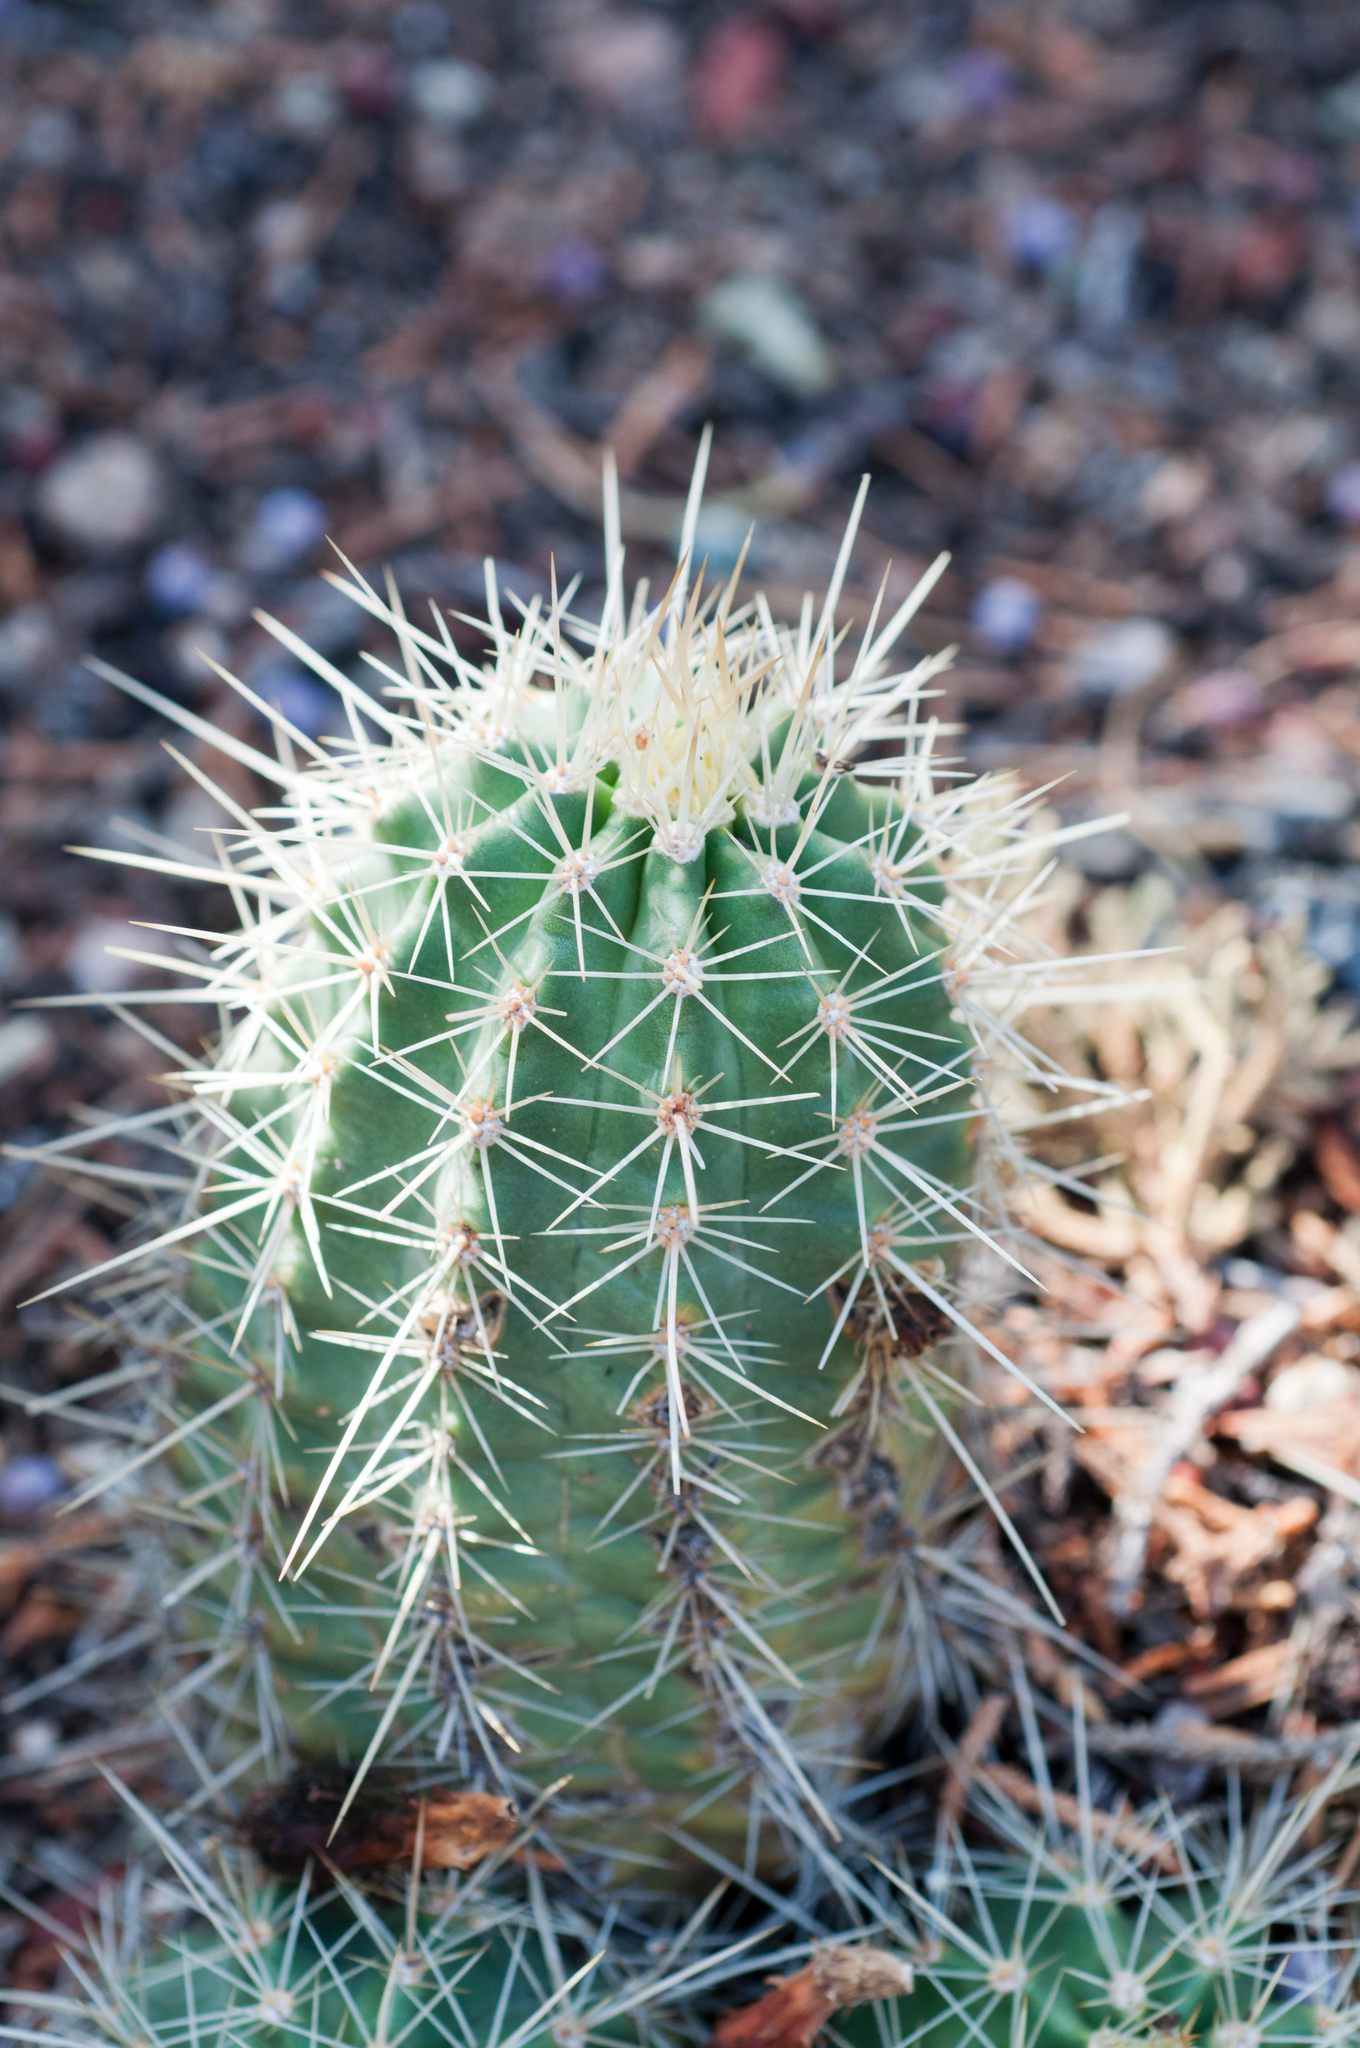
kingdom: Plantae
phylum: Tracheophyta
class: Magnoliopsida
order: Caryophyllales
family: Cactaceae
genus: Echinocereus
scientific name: Echinocereus coccineus
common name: Scarlet hedgehog cactus
